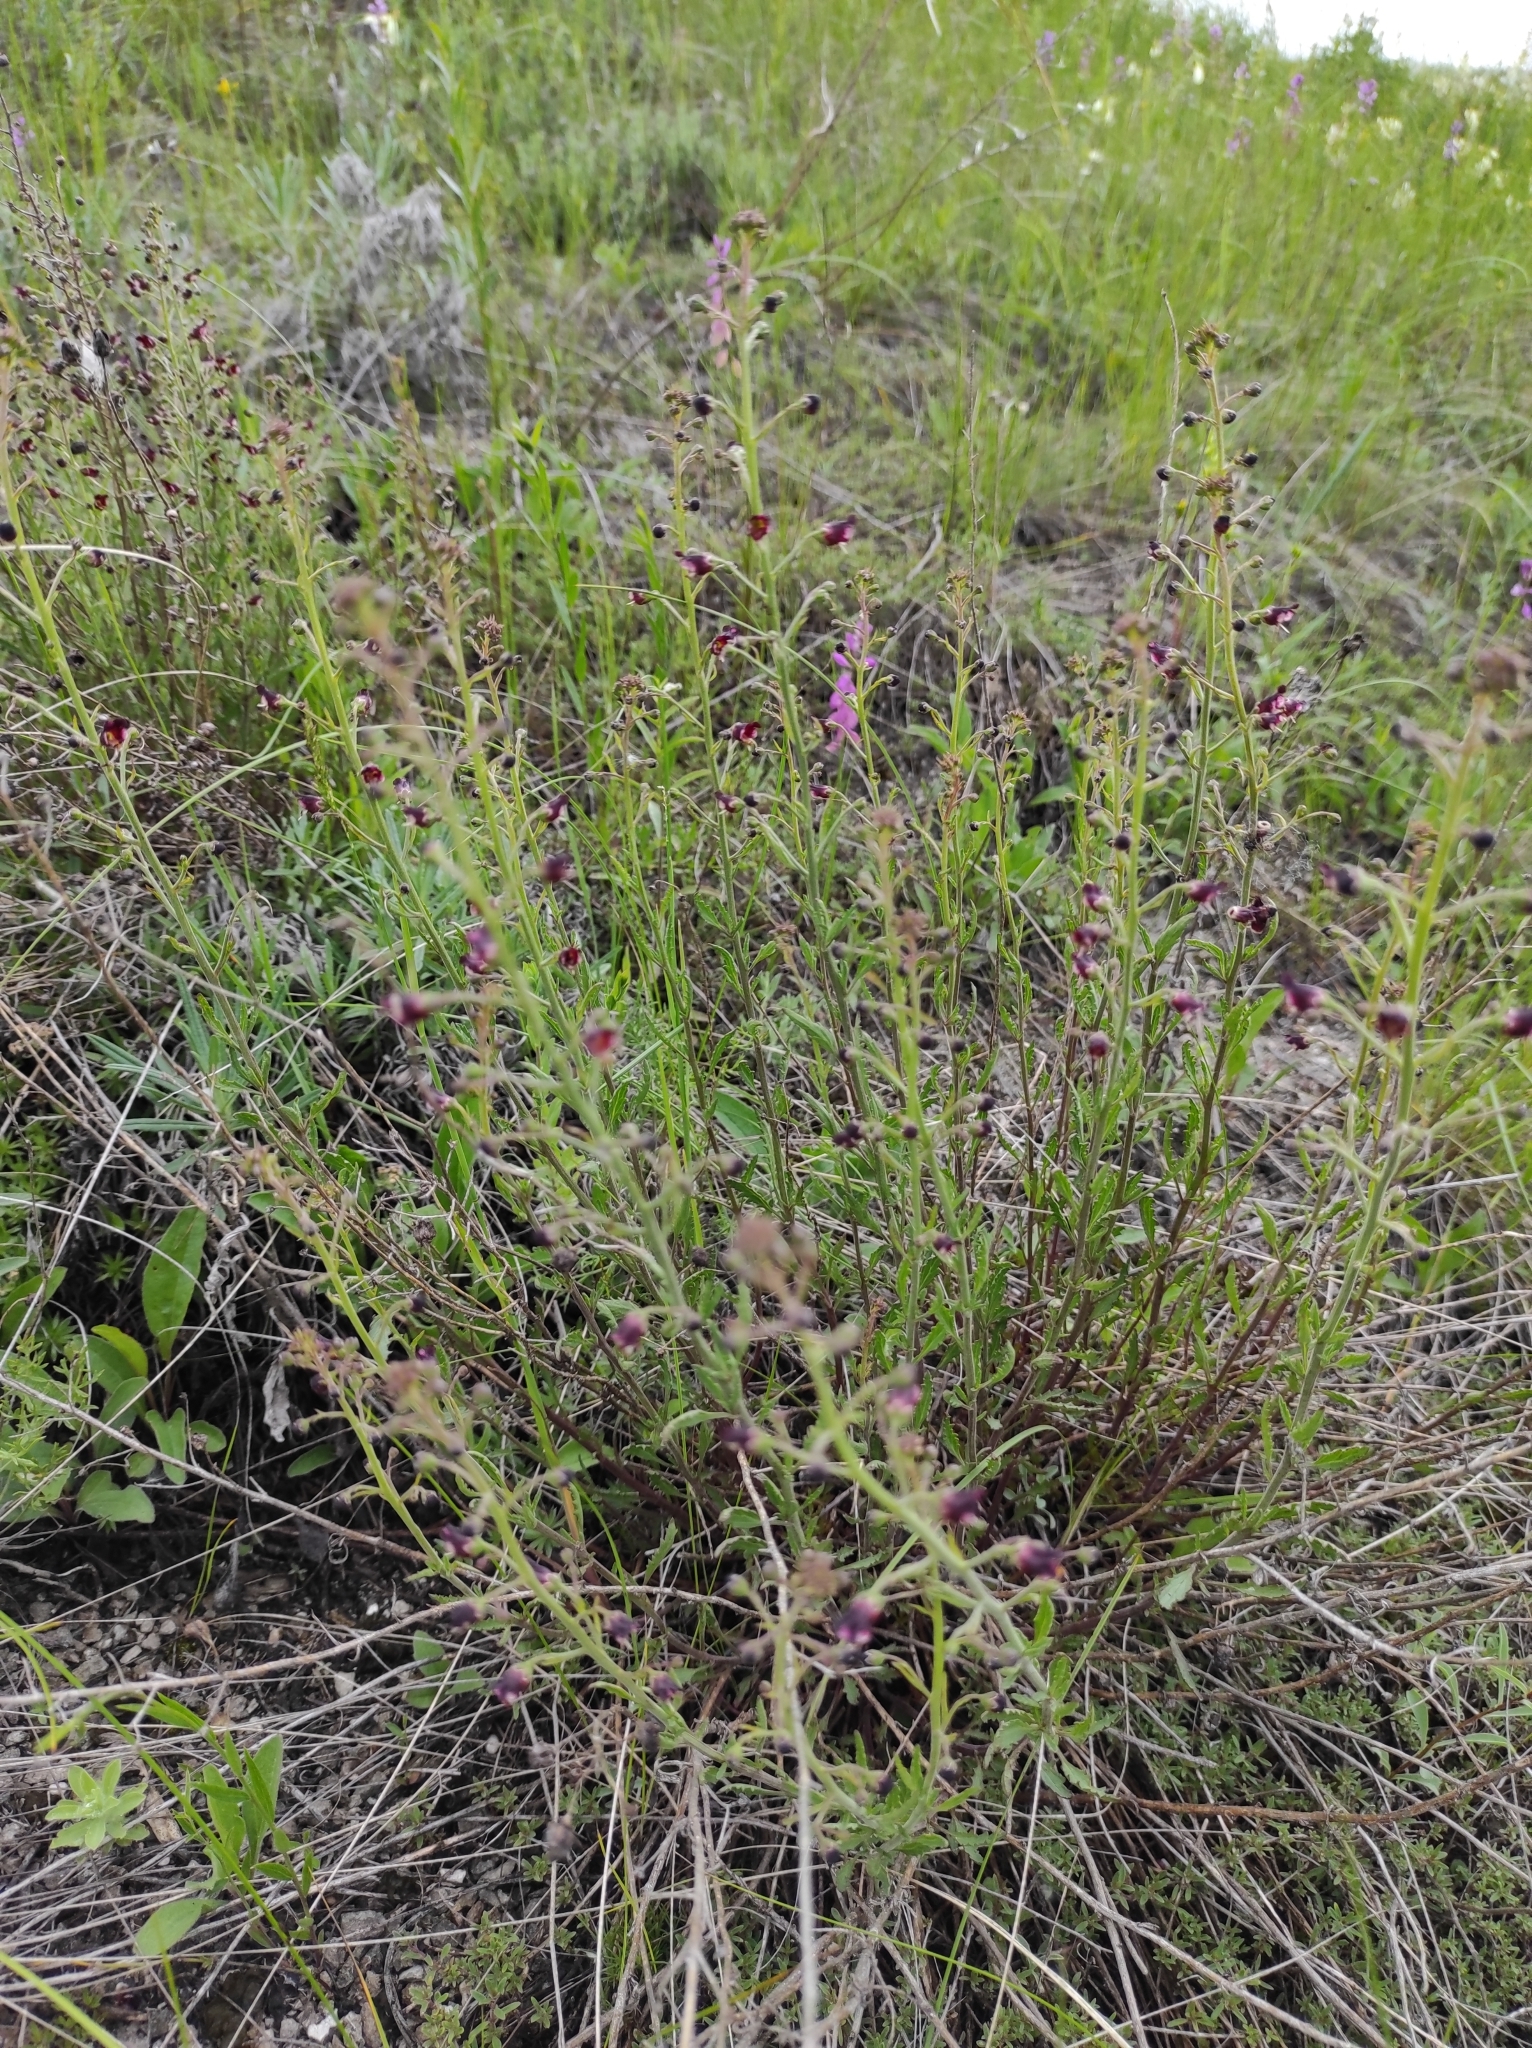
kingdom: Plantae
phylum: Tracheophyta
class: Magnoliopsida
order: Lamiales
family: Scrophulariaceae
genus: Scrophularia
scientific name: Scrophularia cretacea
